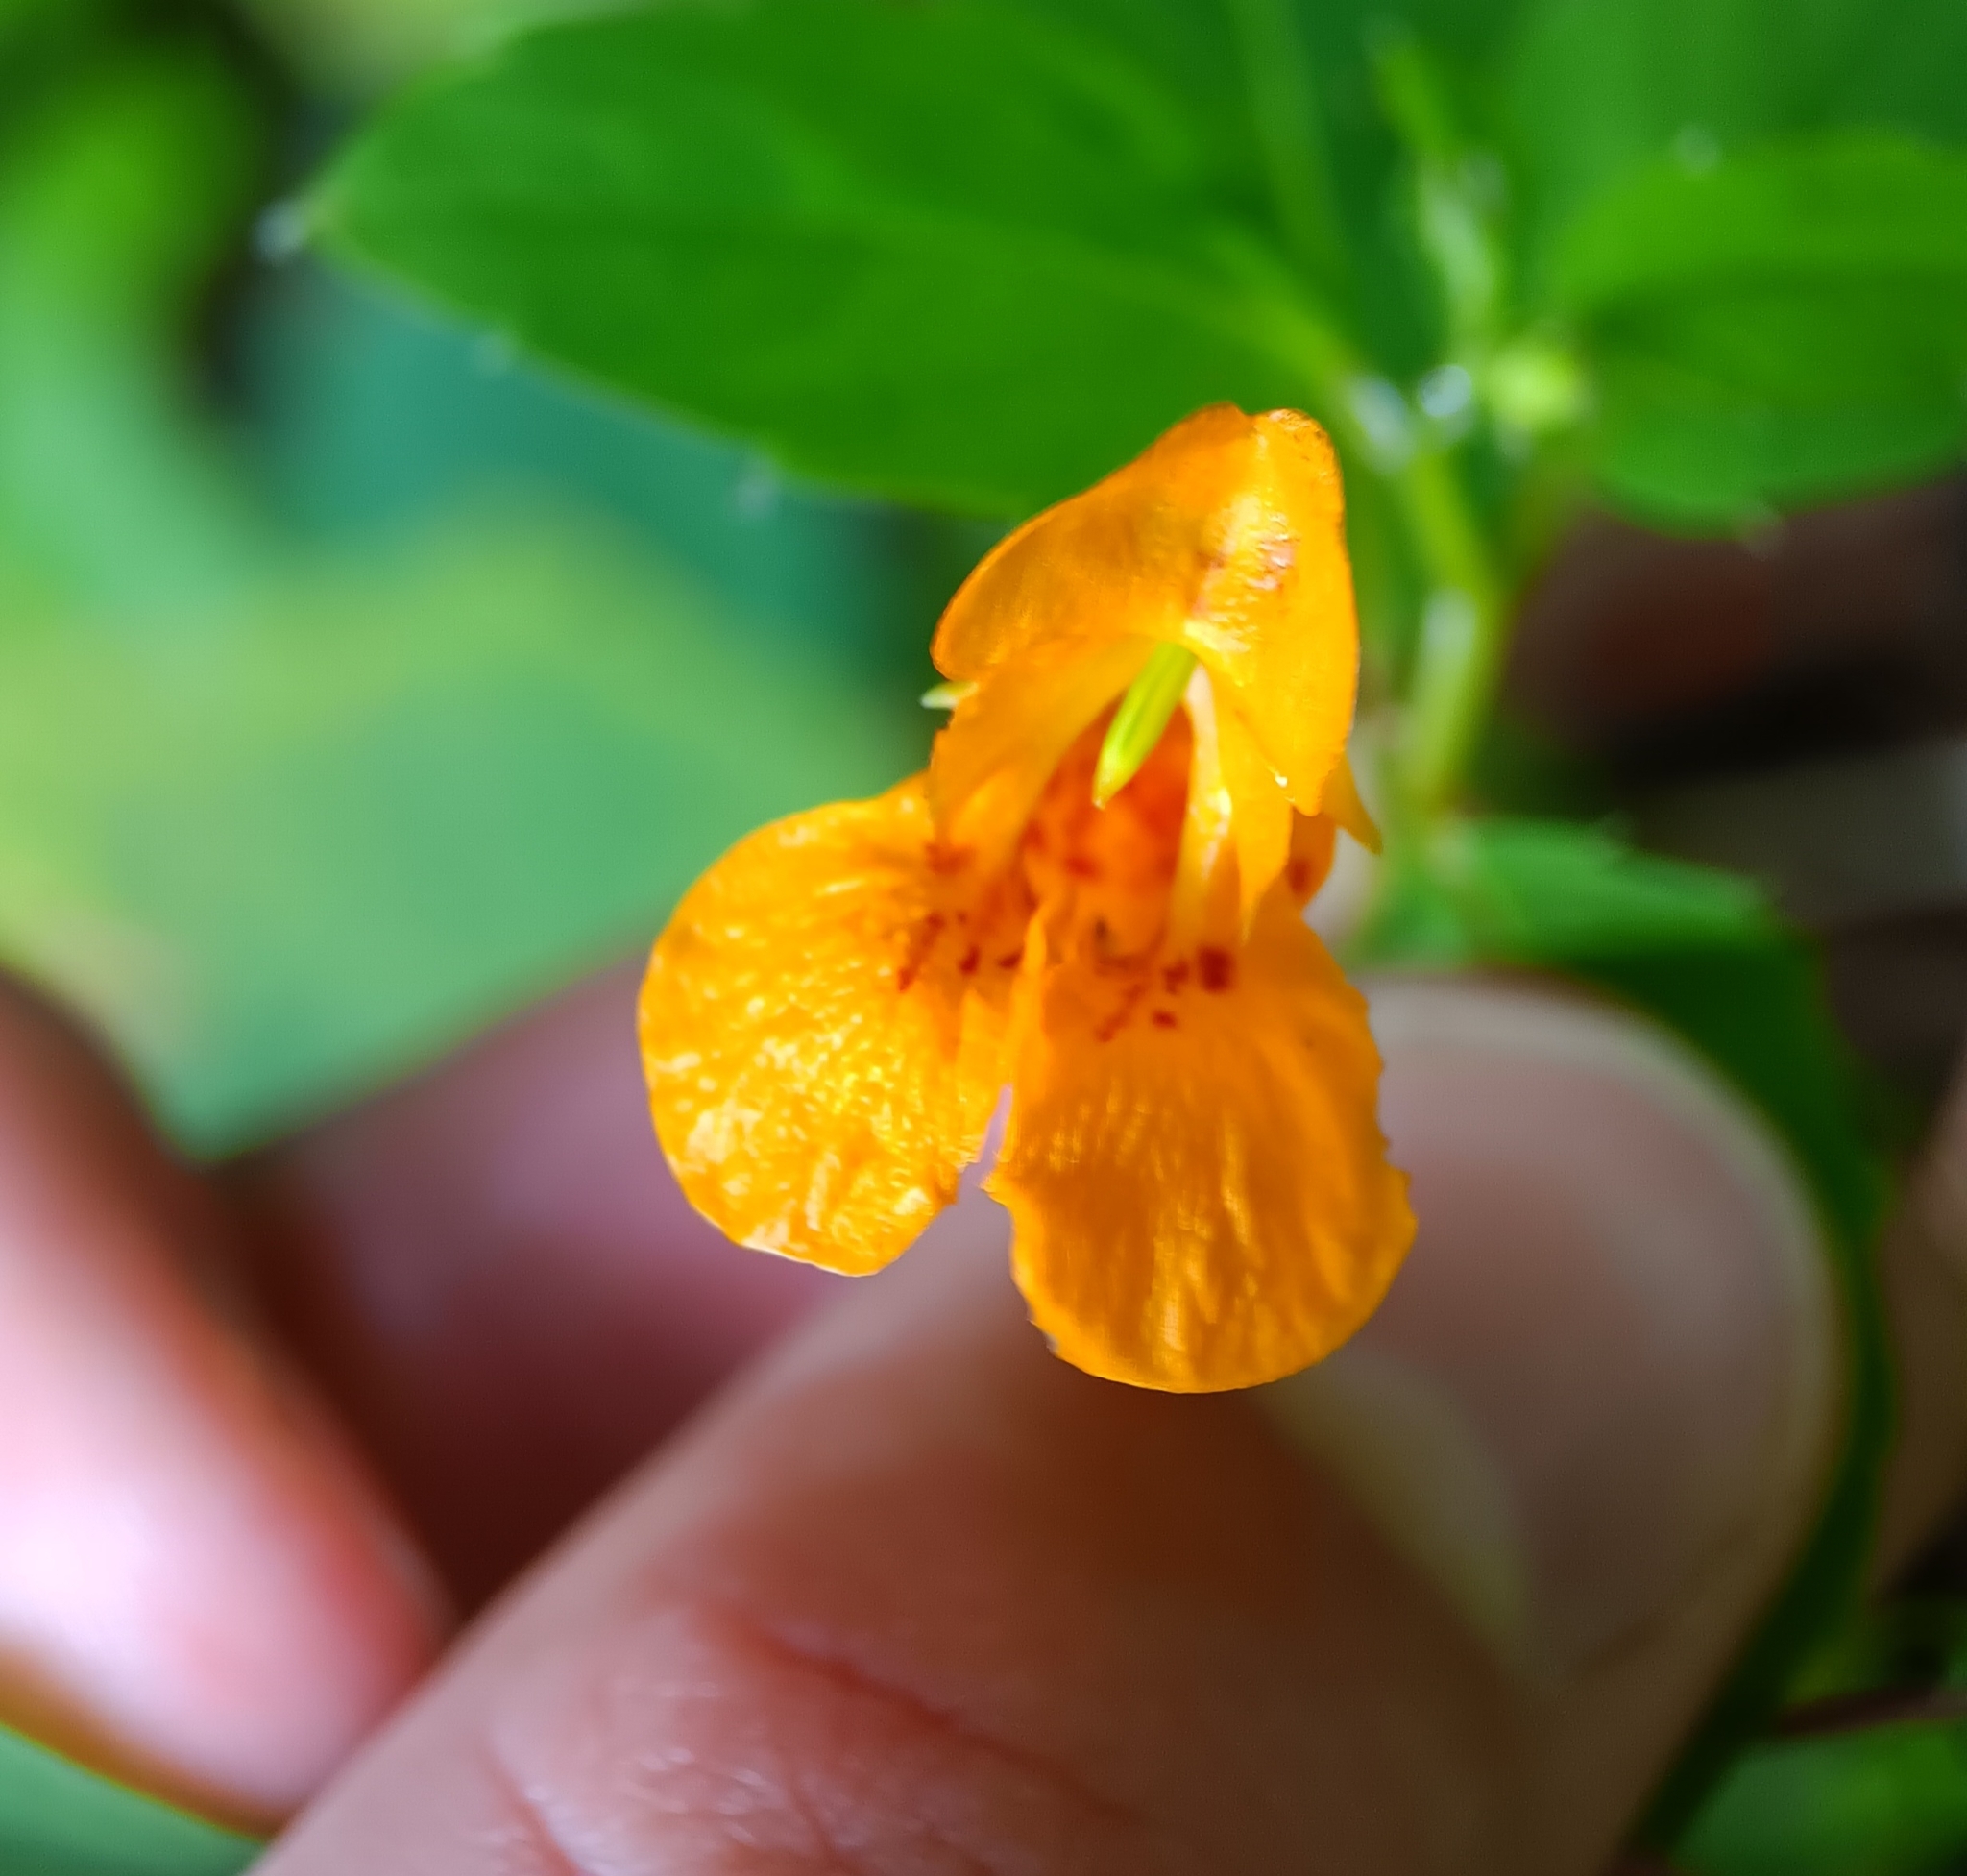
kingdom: Plantae
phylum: Tracheophyta
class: Magnoliopsida
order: Ericales
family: Balsaminaceae
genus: Impatiens
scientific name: Impatiens capensis
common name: Orange balsam
